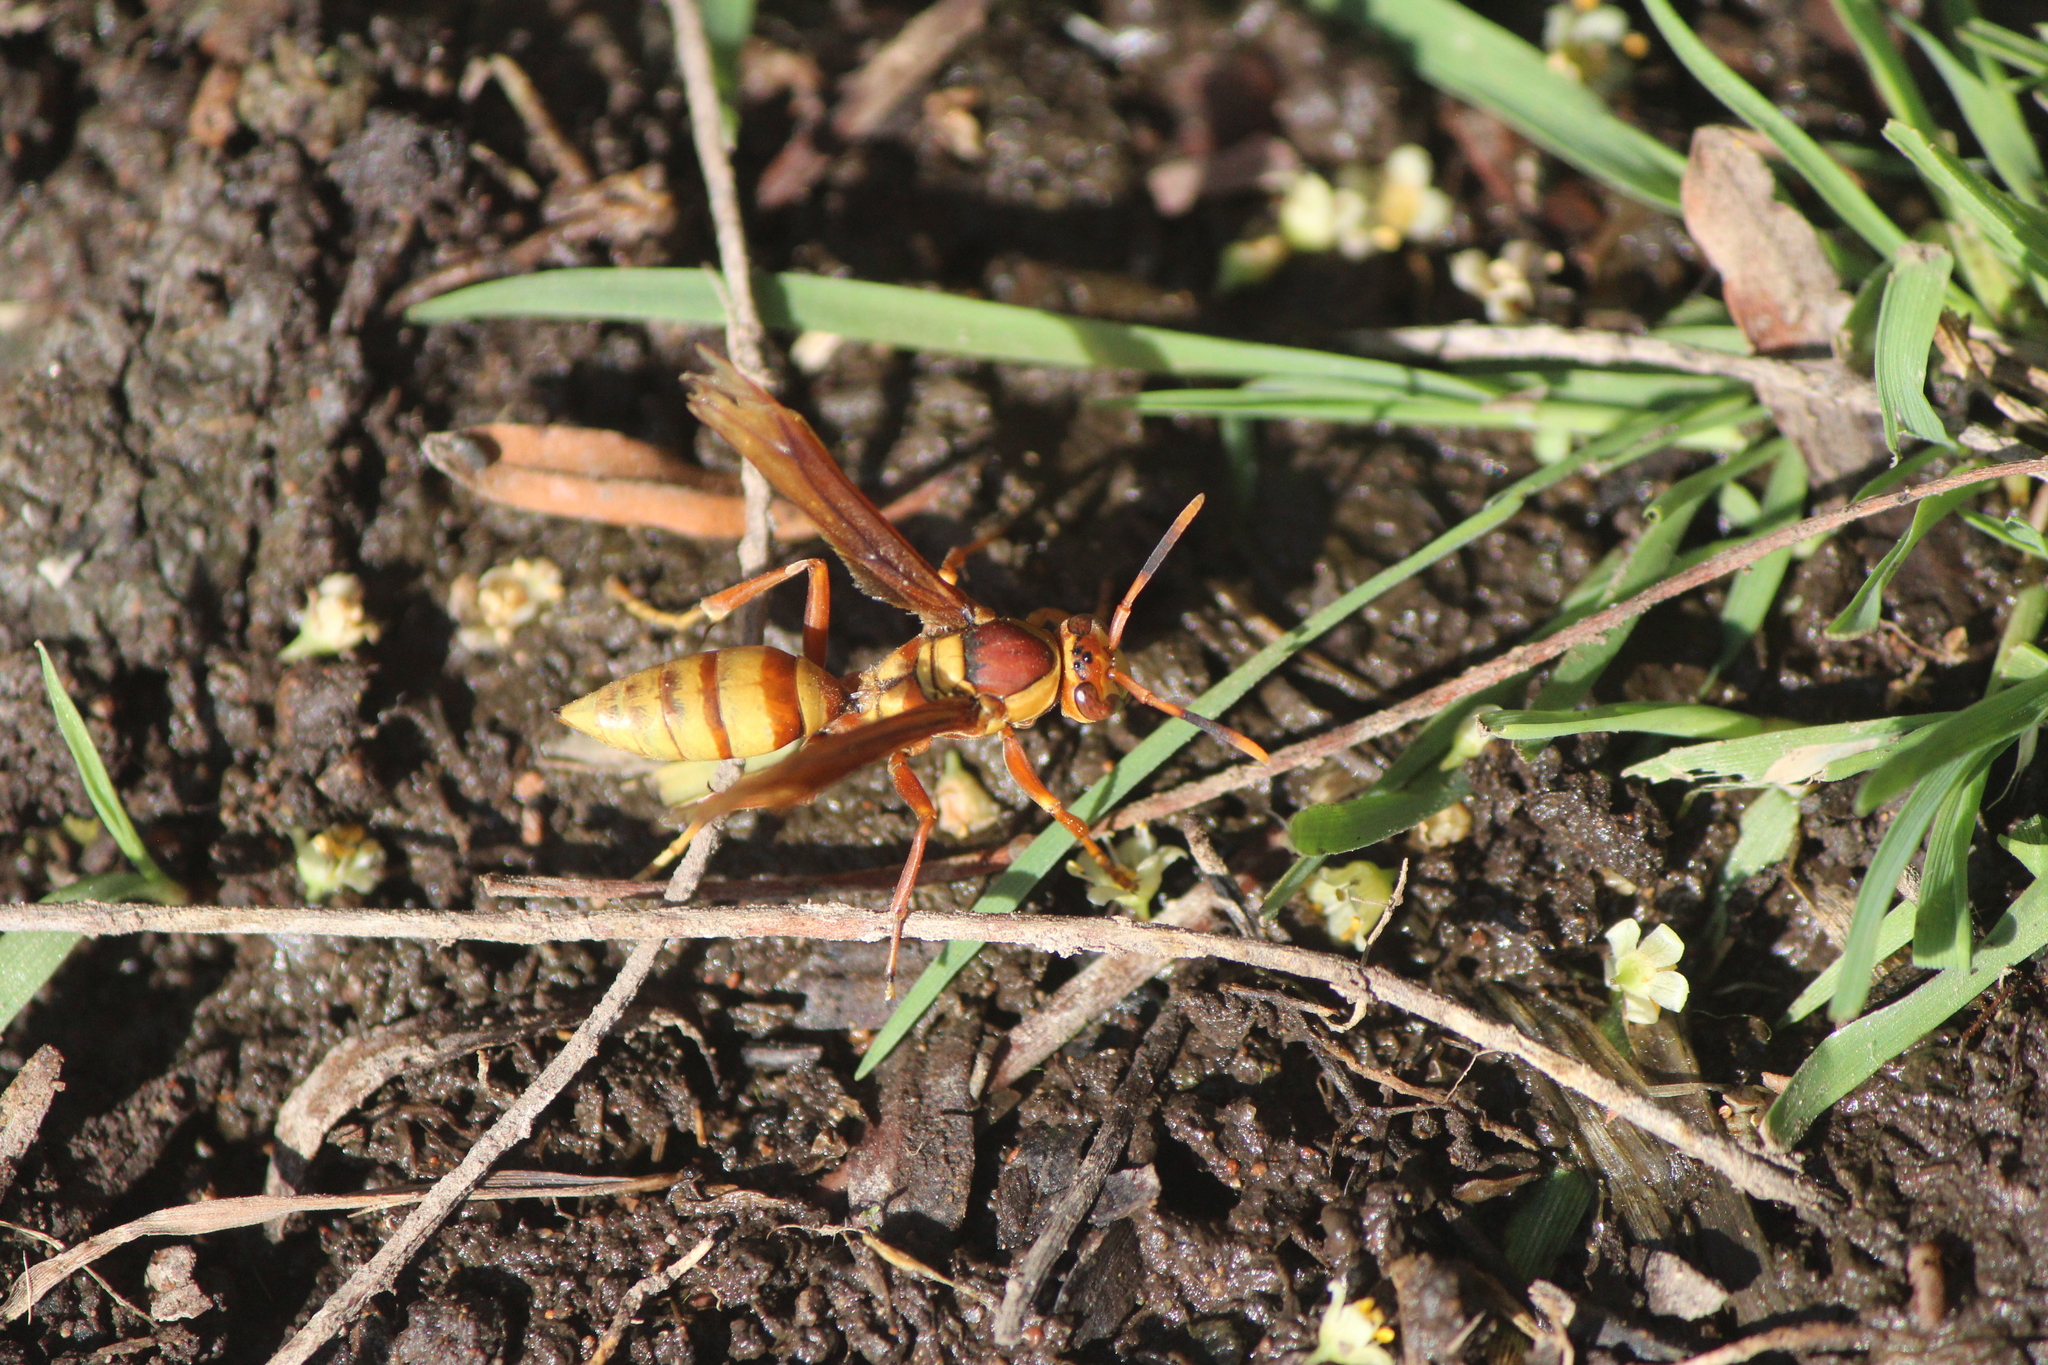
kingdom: Animalia
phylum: Arthropoda
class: Insecta
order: Hymenoptera
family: Eumenidae
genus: Polistes
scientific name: Polistes major
